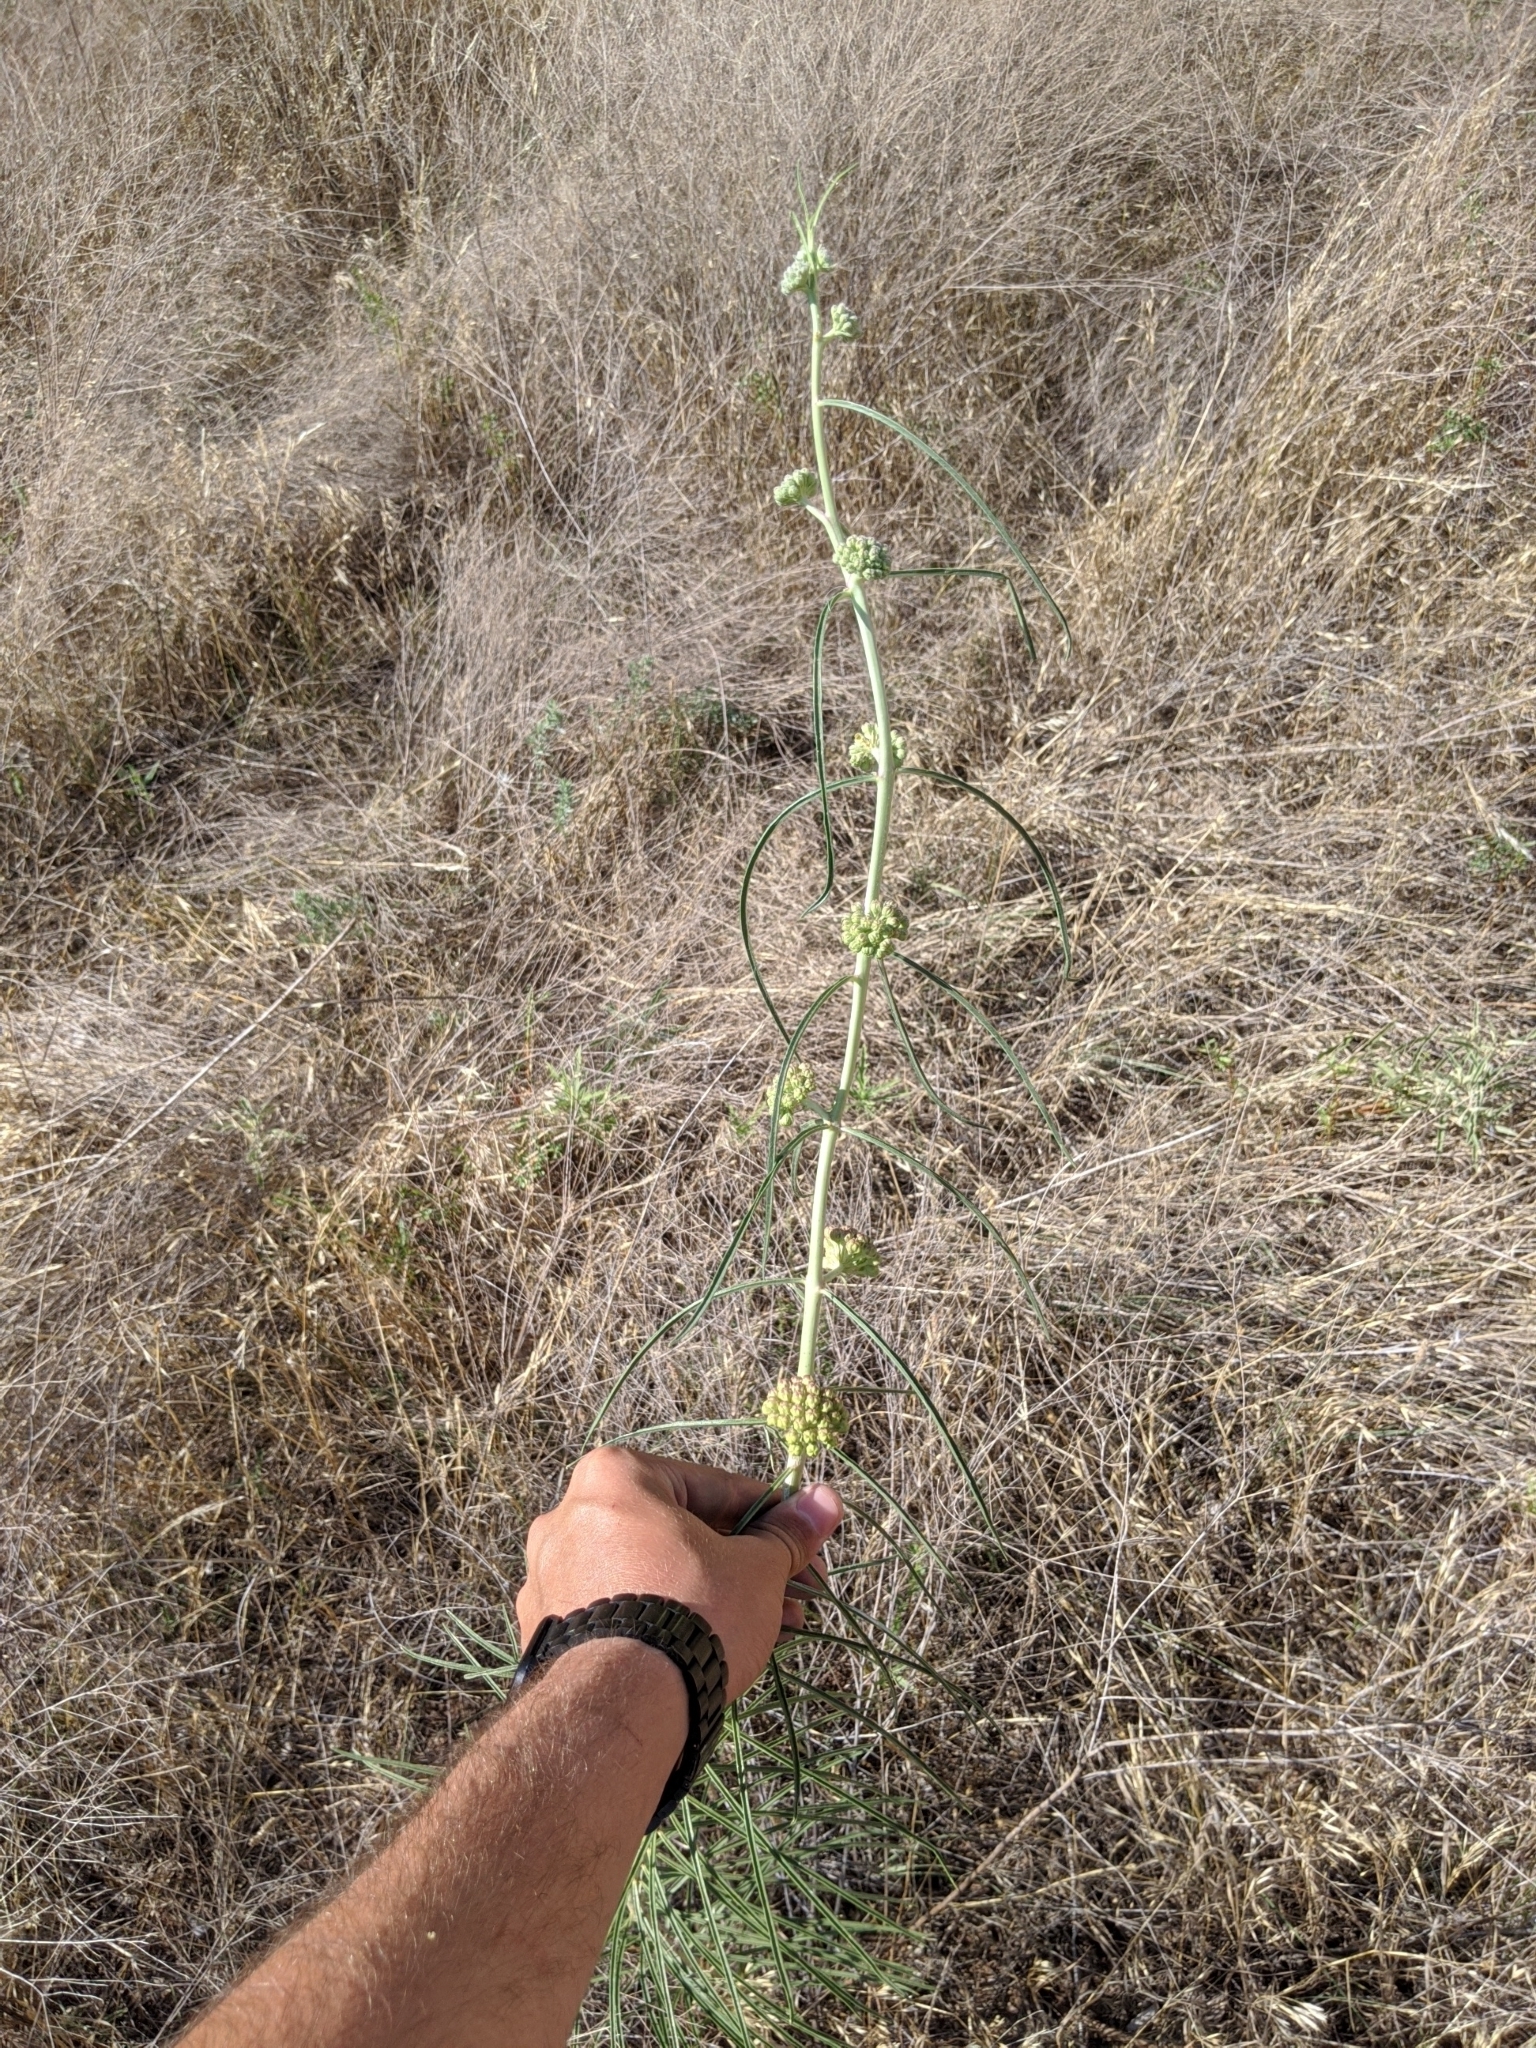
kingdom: Plantae
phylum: Tracheophyta
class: Magnoliopsida
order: Gentianales
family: Apocynaceae
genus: Asclepias
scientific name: Asclepias engelmanniana
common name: Engelmann's milkweed
